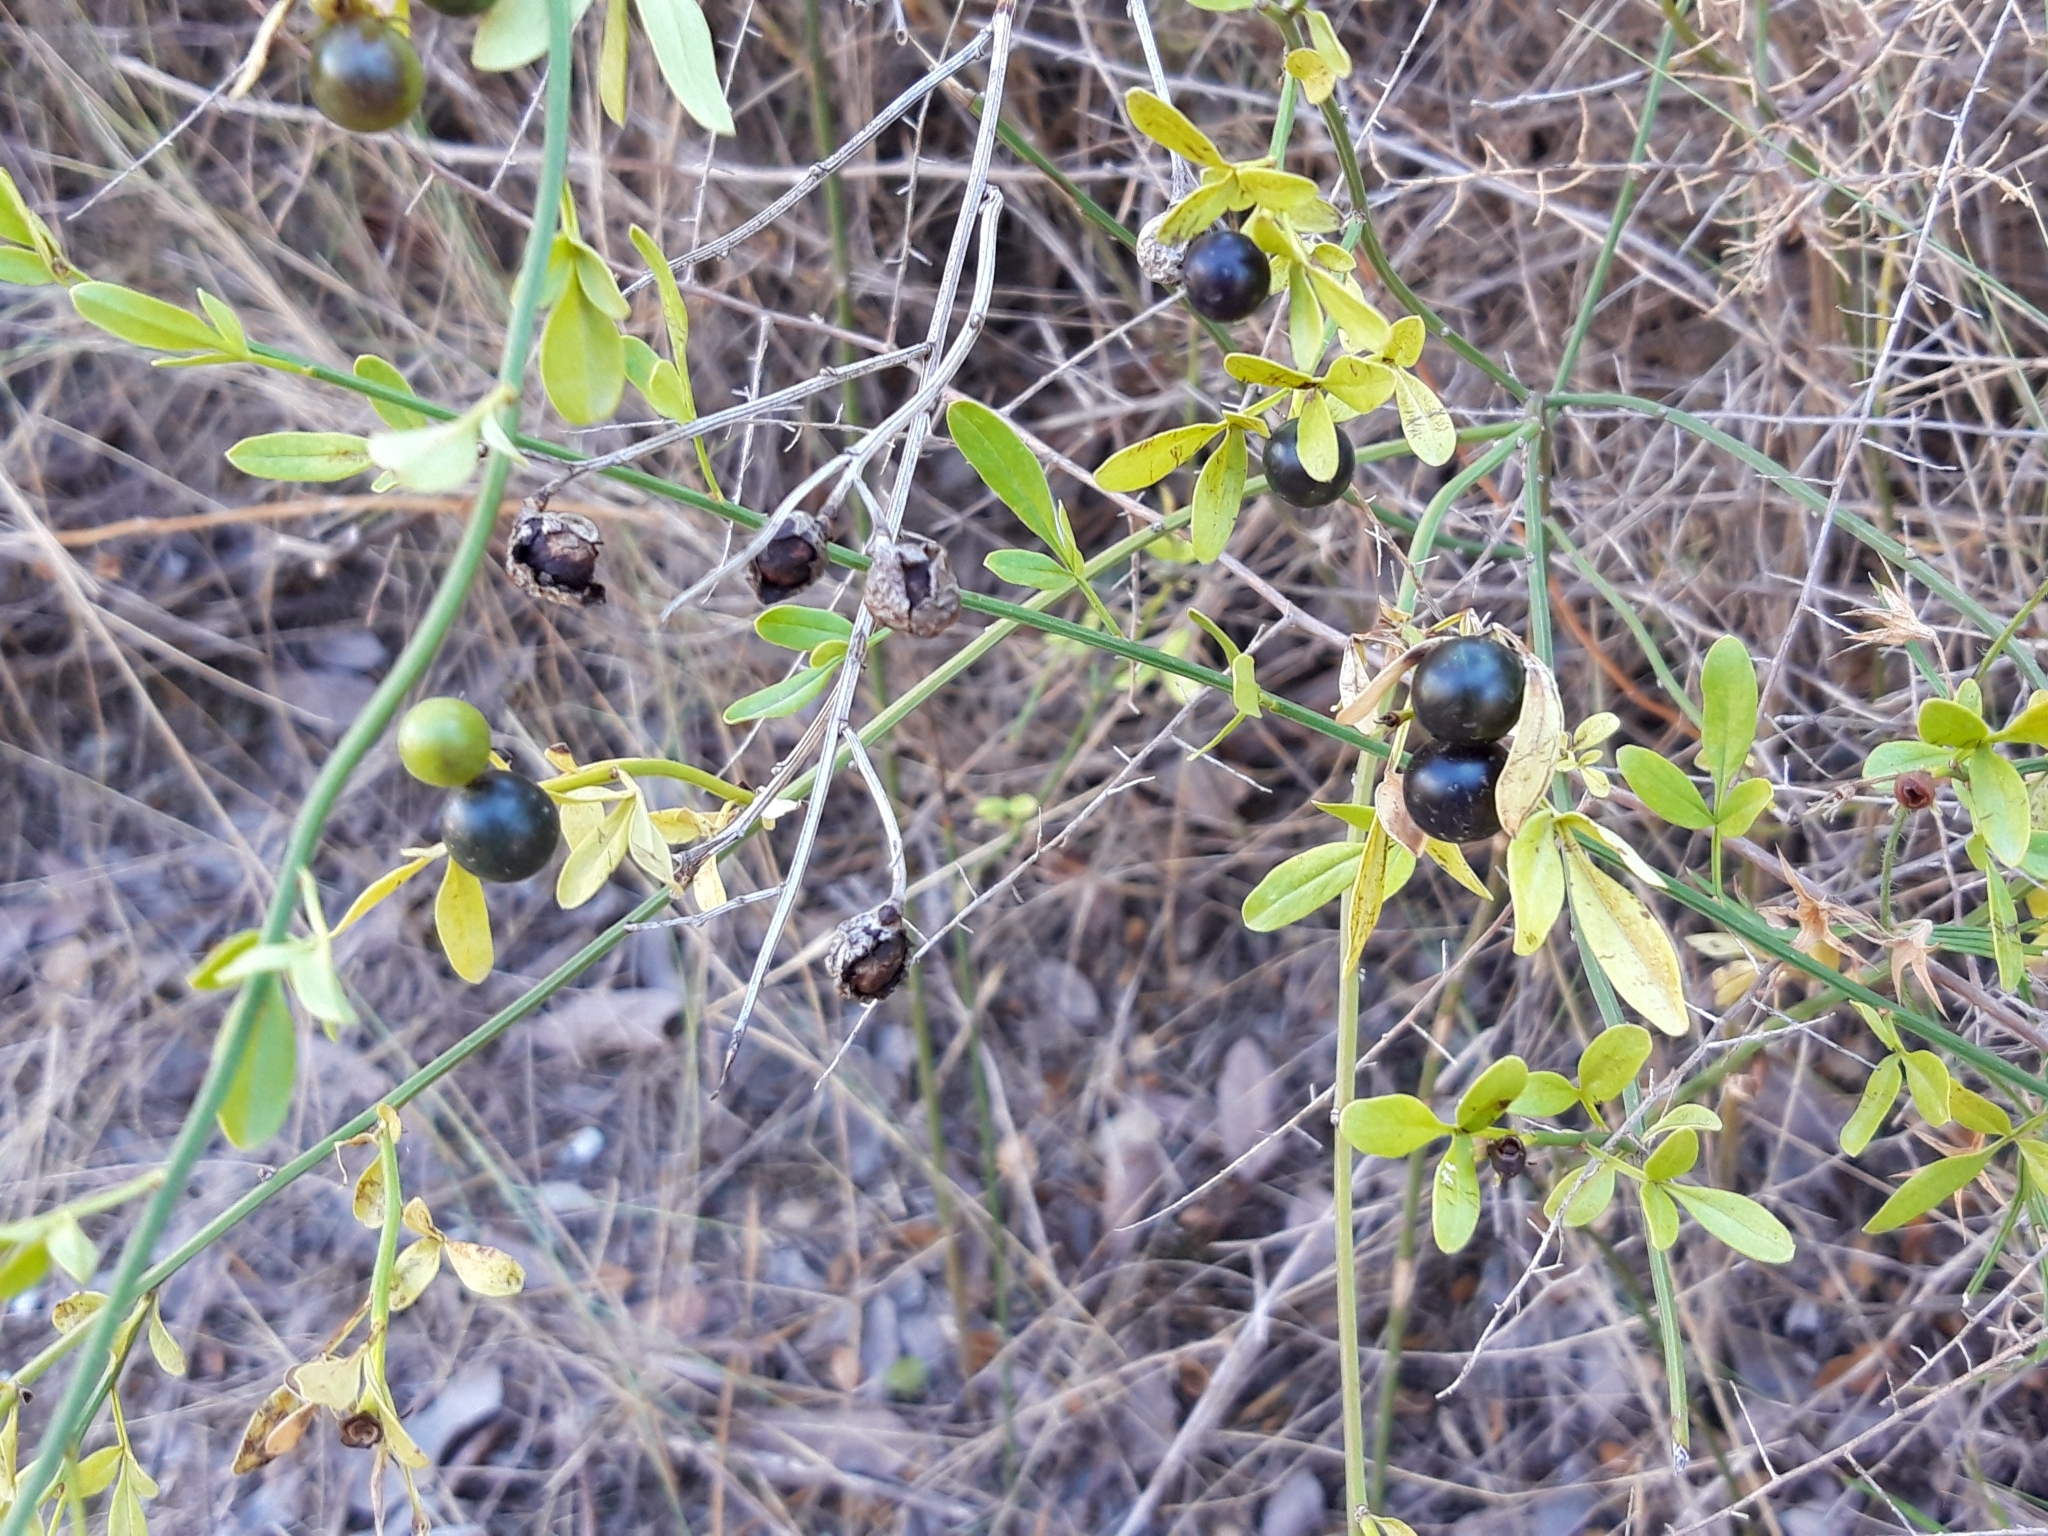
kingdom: Plantae
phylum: Tracheophyta
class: Magnoliopsida
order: Lamiales
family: Oleaceae
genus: Chrysojasminum
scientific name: Chrysojasminum fruticans
